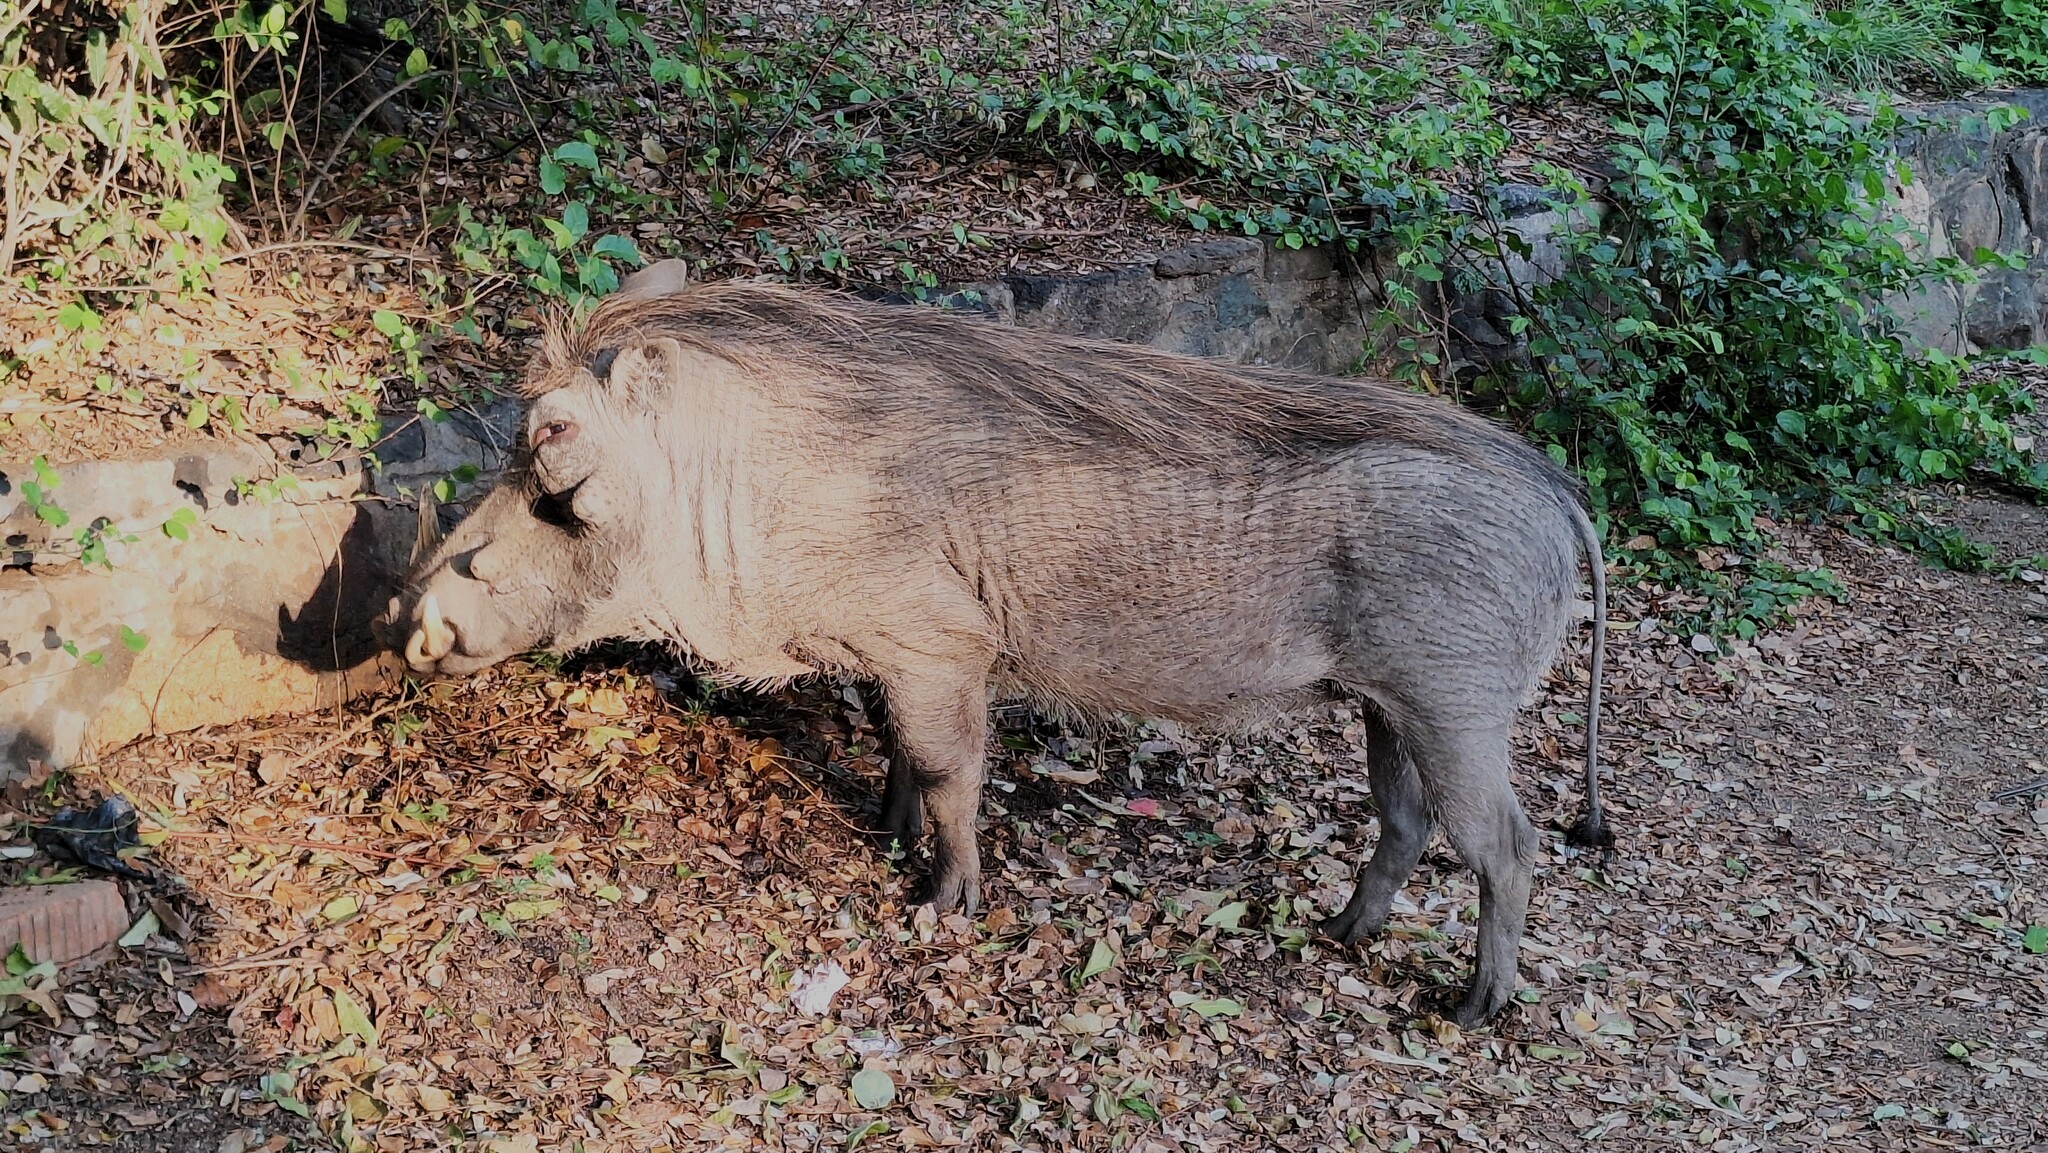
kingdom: Animalia
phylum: Chordata
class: Mammalia
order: Artiodactyla
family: Suidae
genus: Phacochoerus
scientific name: Phacochoerus africanus
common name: Common warthog
